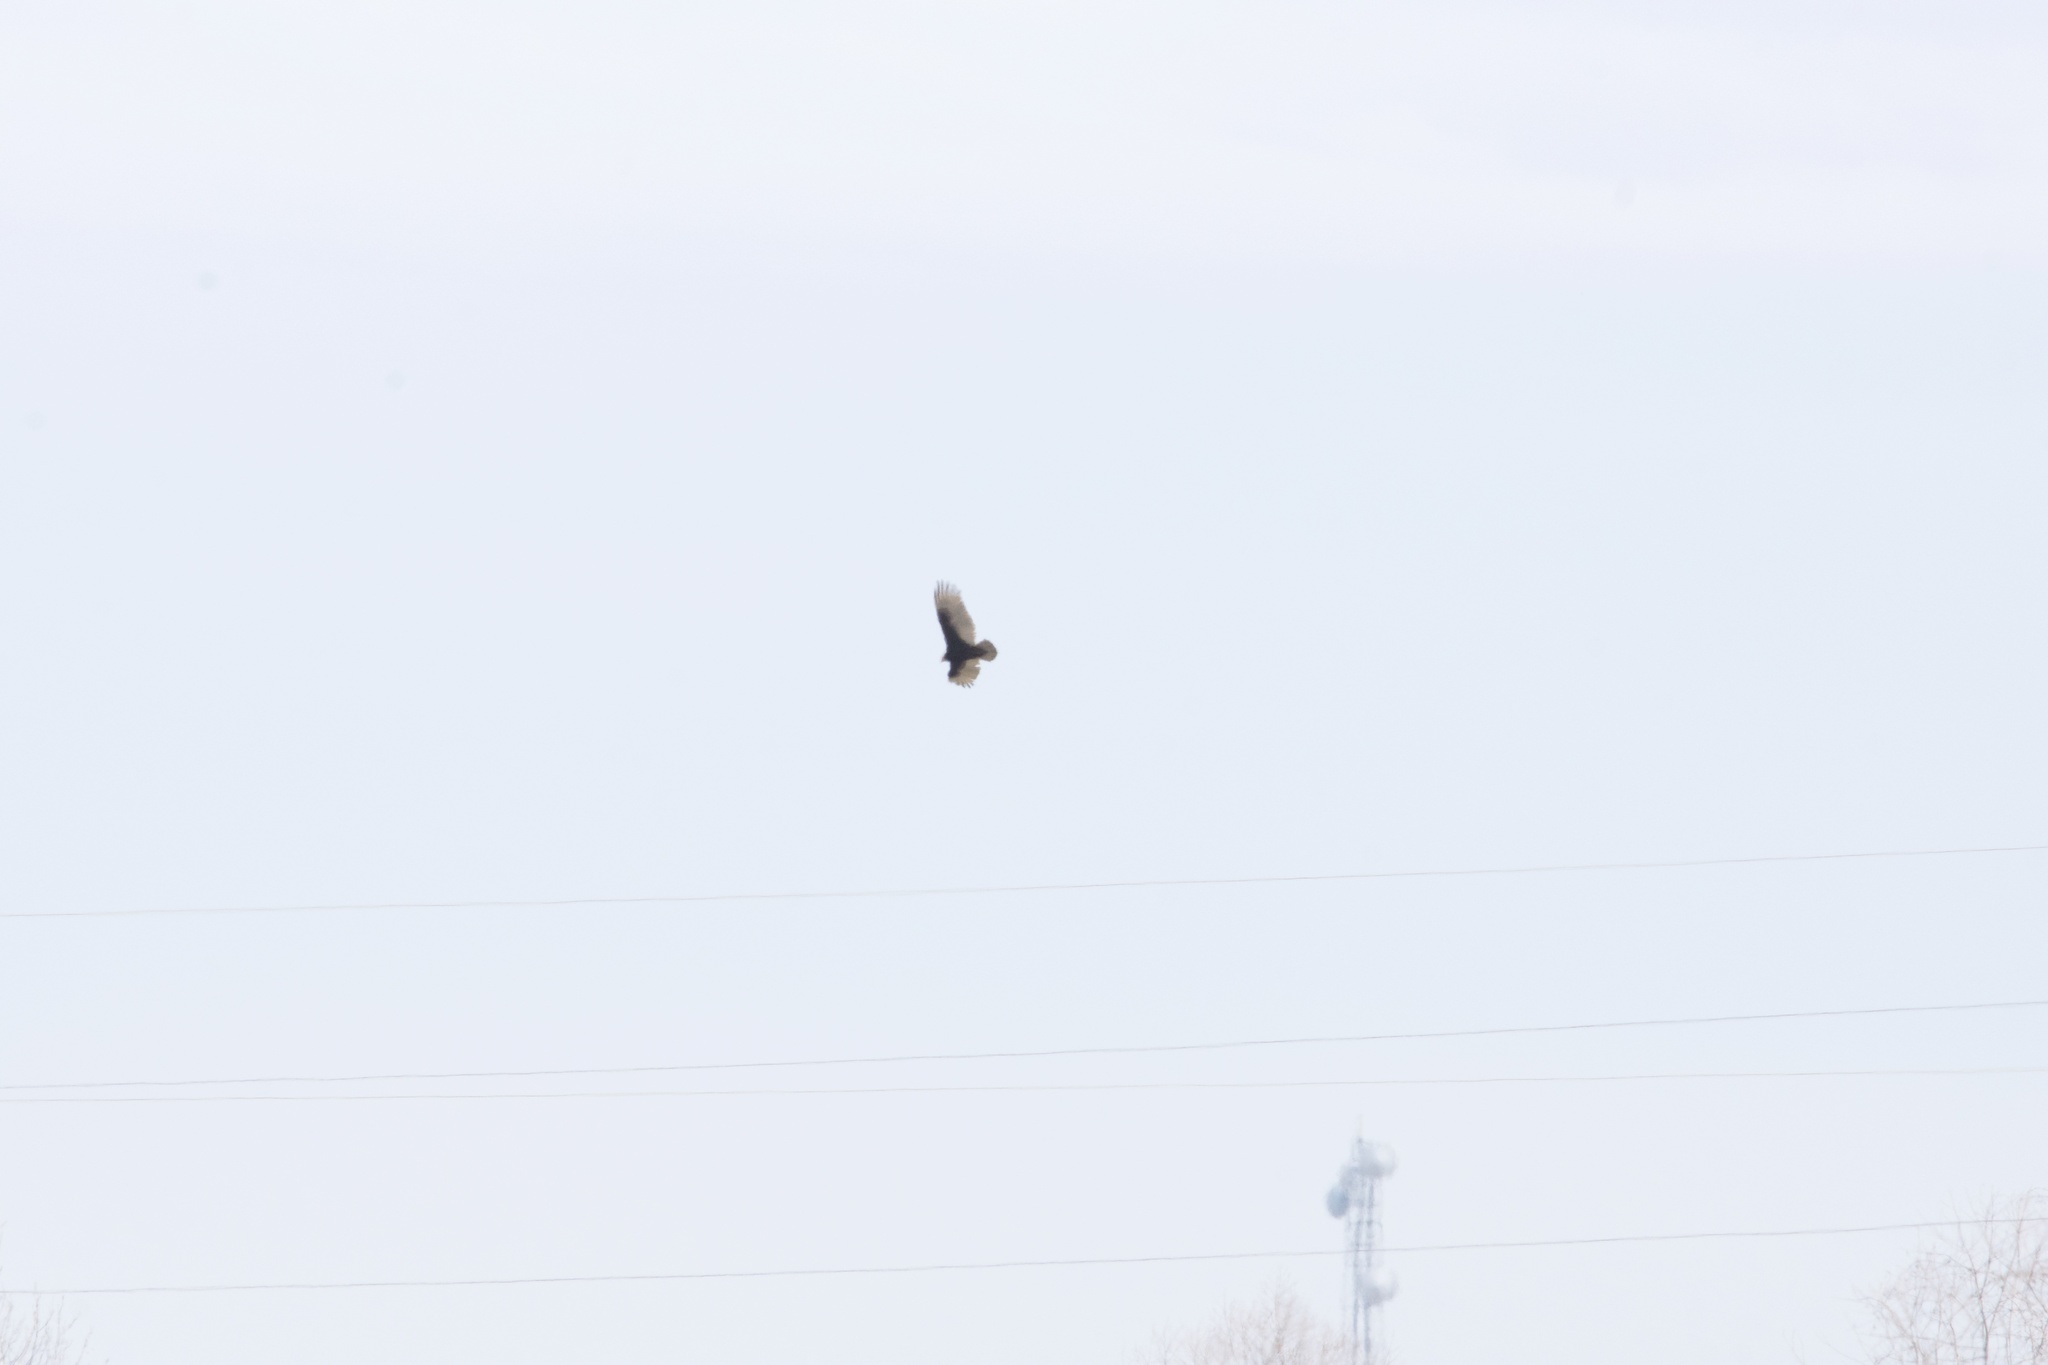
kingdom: Animalia
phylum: Chordata
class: Aves
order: Accipitriformes
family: Cathartidae
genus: Cathartes
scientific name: Cathartes aura
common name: Turkey vulture
